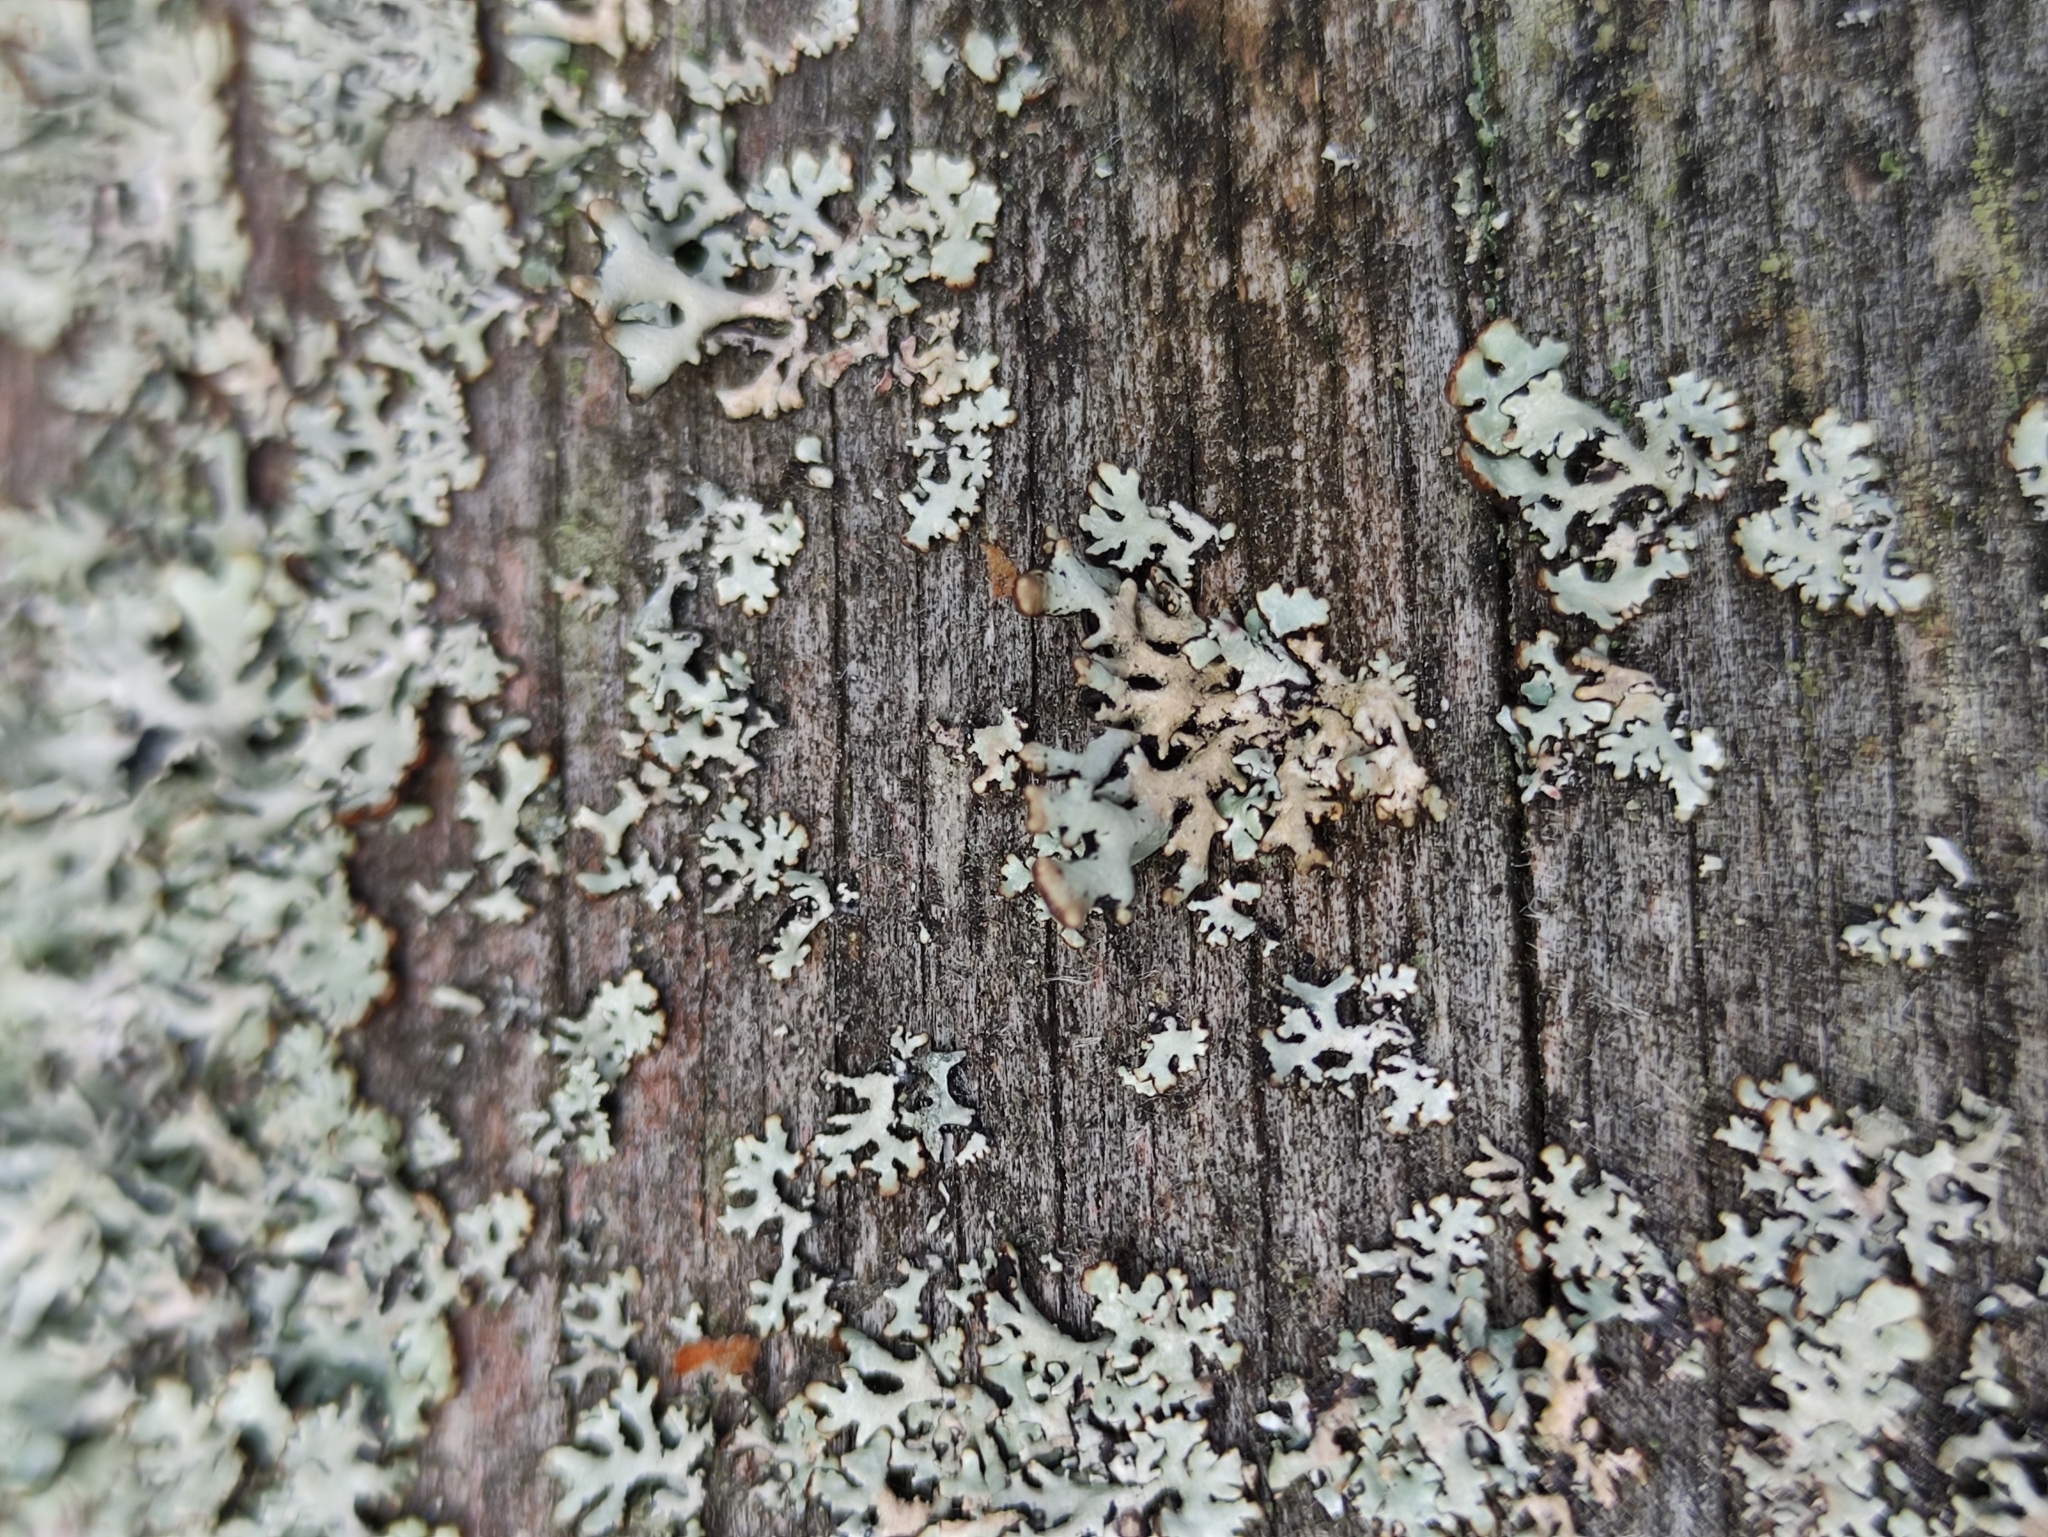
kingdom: Fungi
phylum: Ascomycota
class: Lecanoromycetes
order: Lecanorales
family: Parmeliaceae
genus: Hypogymnia
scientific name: Hypogymnia physodes
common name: Dark crottle
